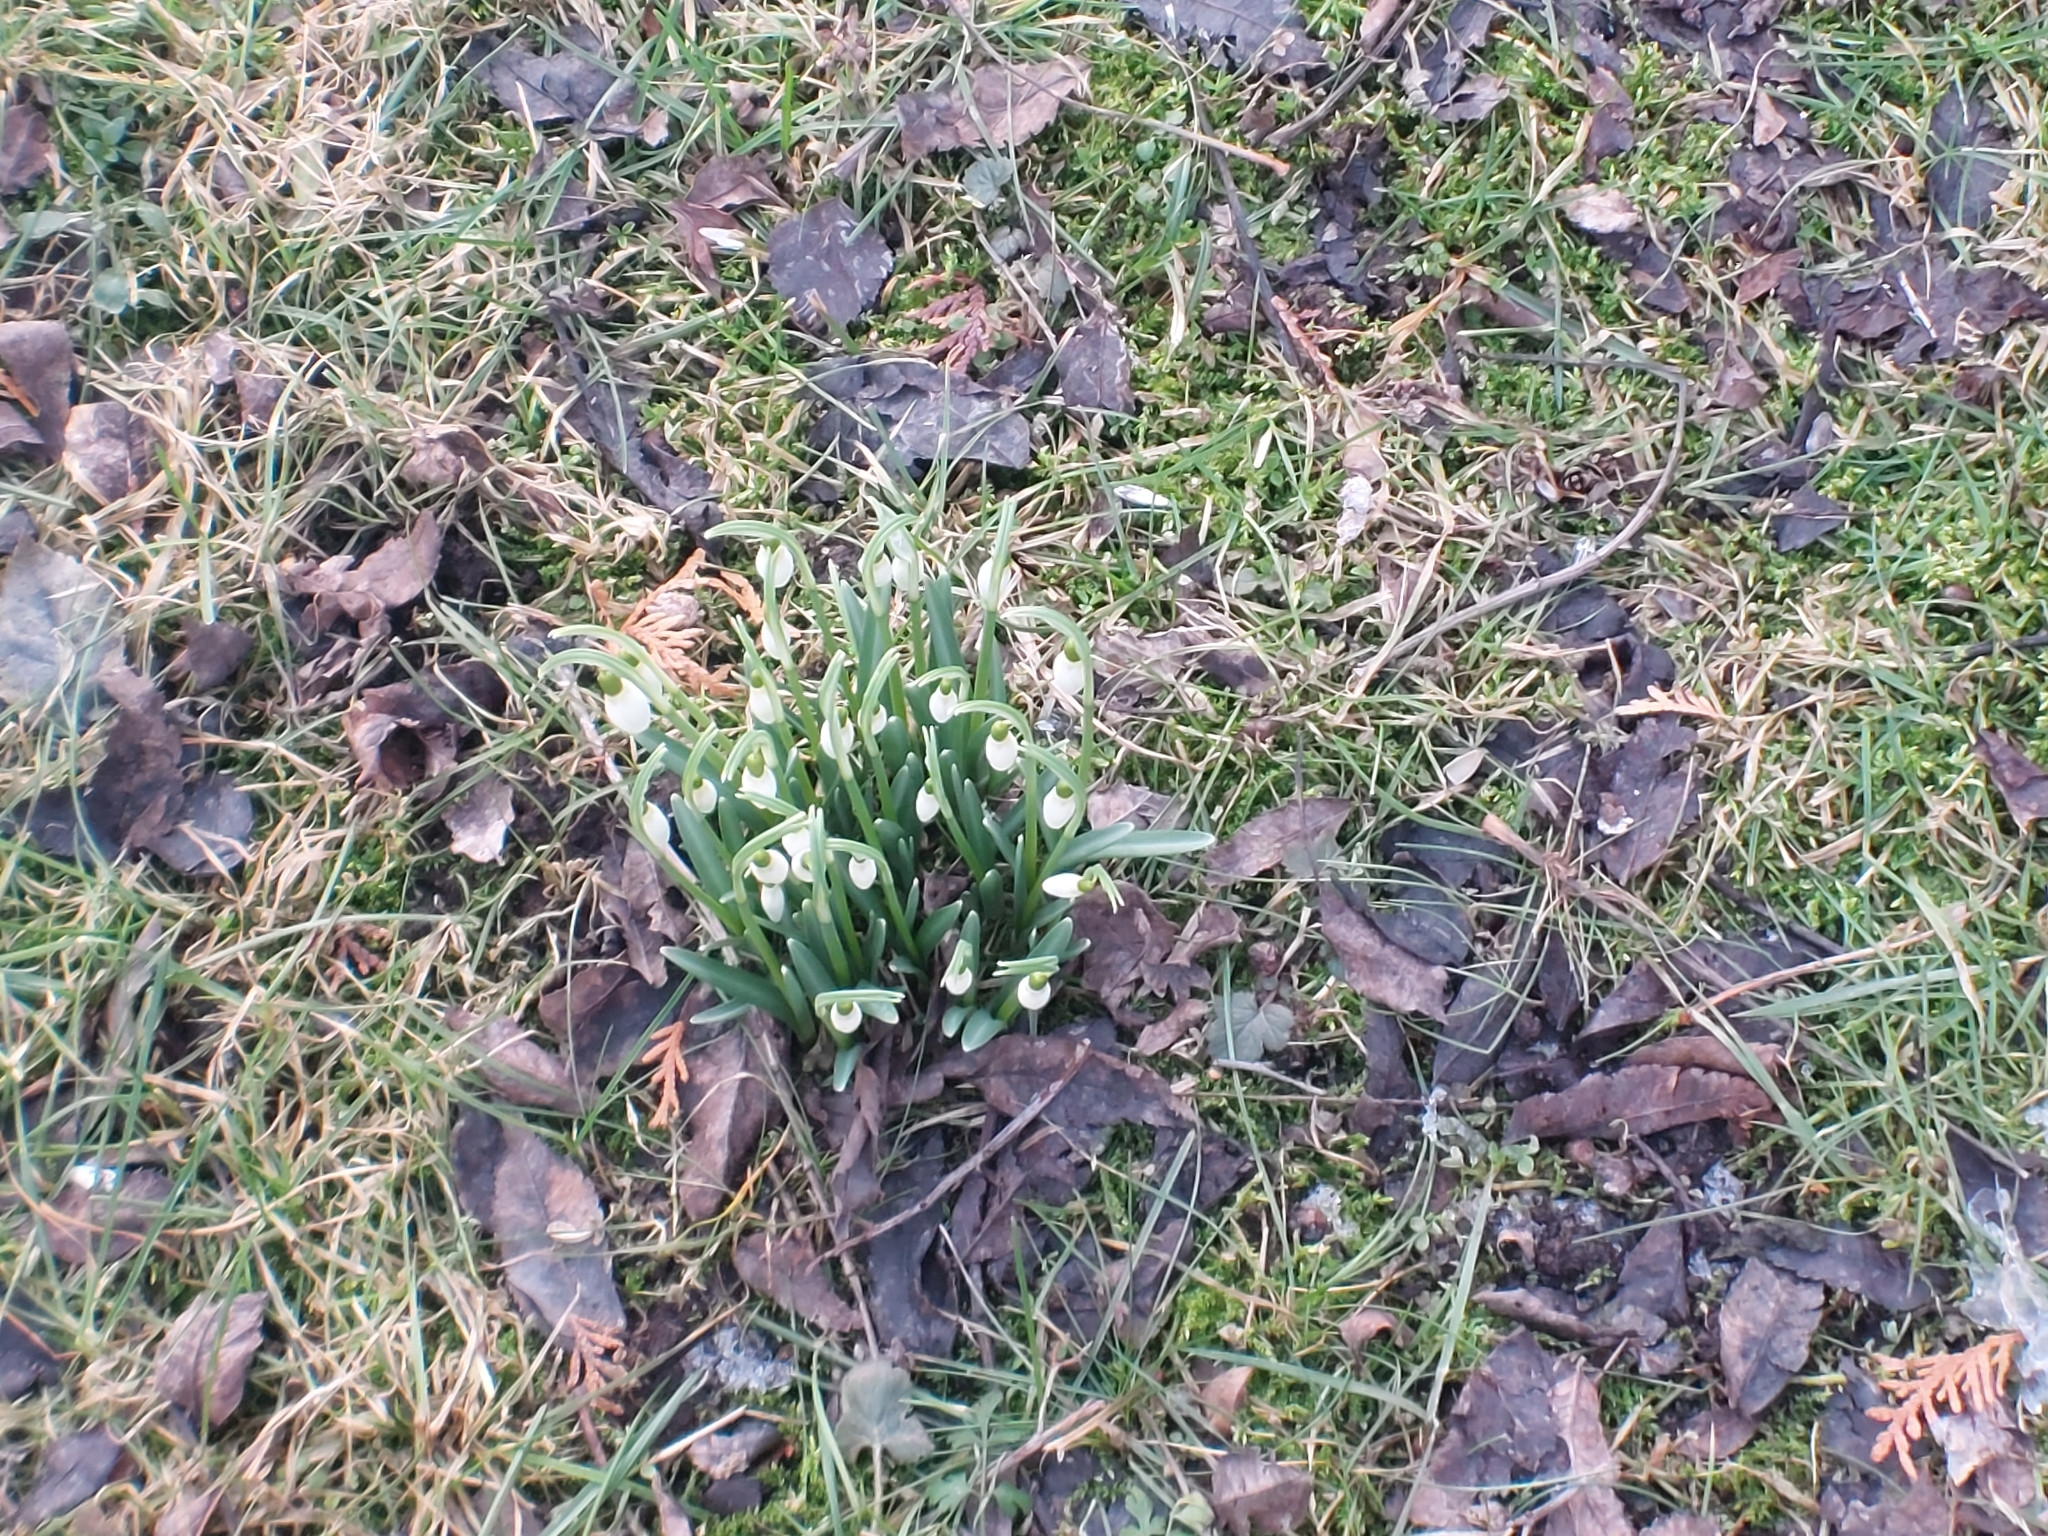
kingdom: Plantae
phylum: Tracheophyta
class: Liliopsida
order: Asparagales
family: Amaryllidaceae
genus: Galanthus
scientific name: Galanthus nivalis
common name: Snowdrop
